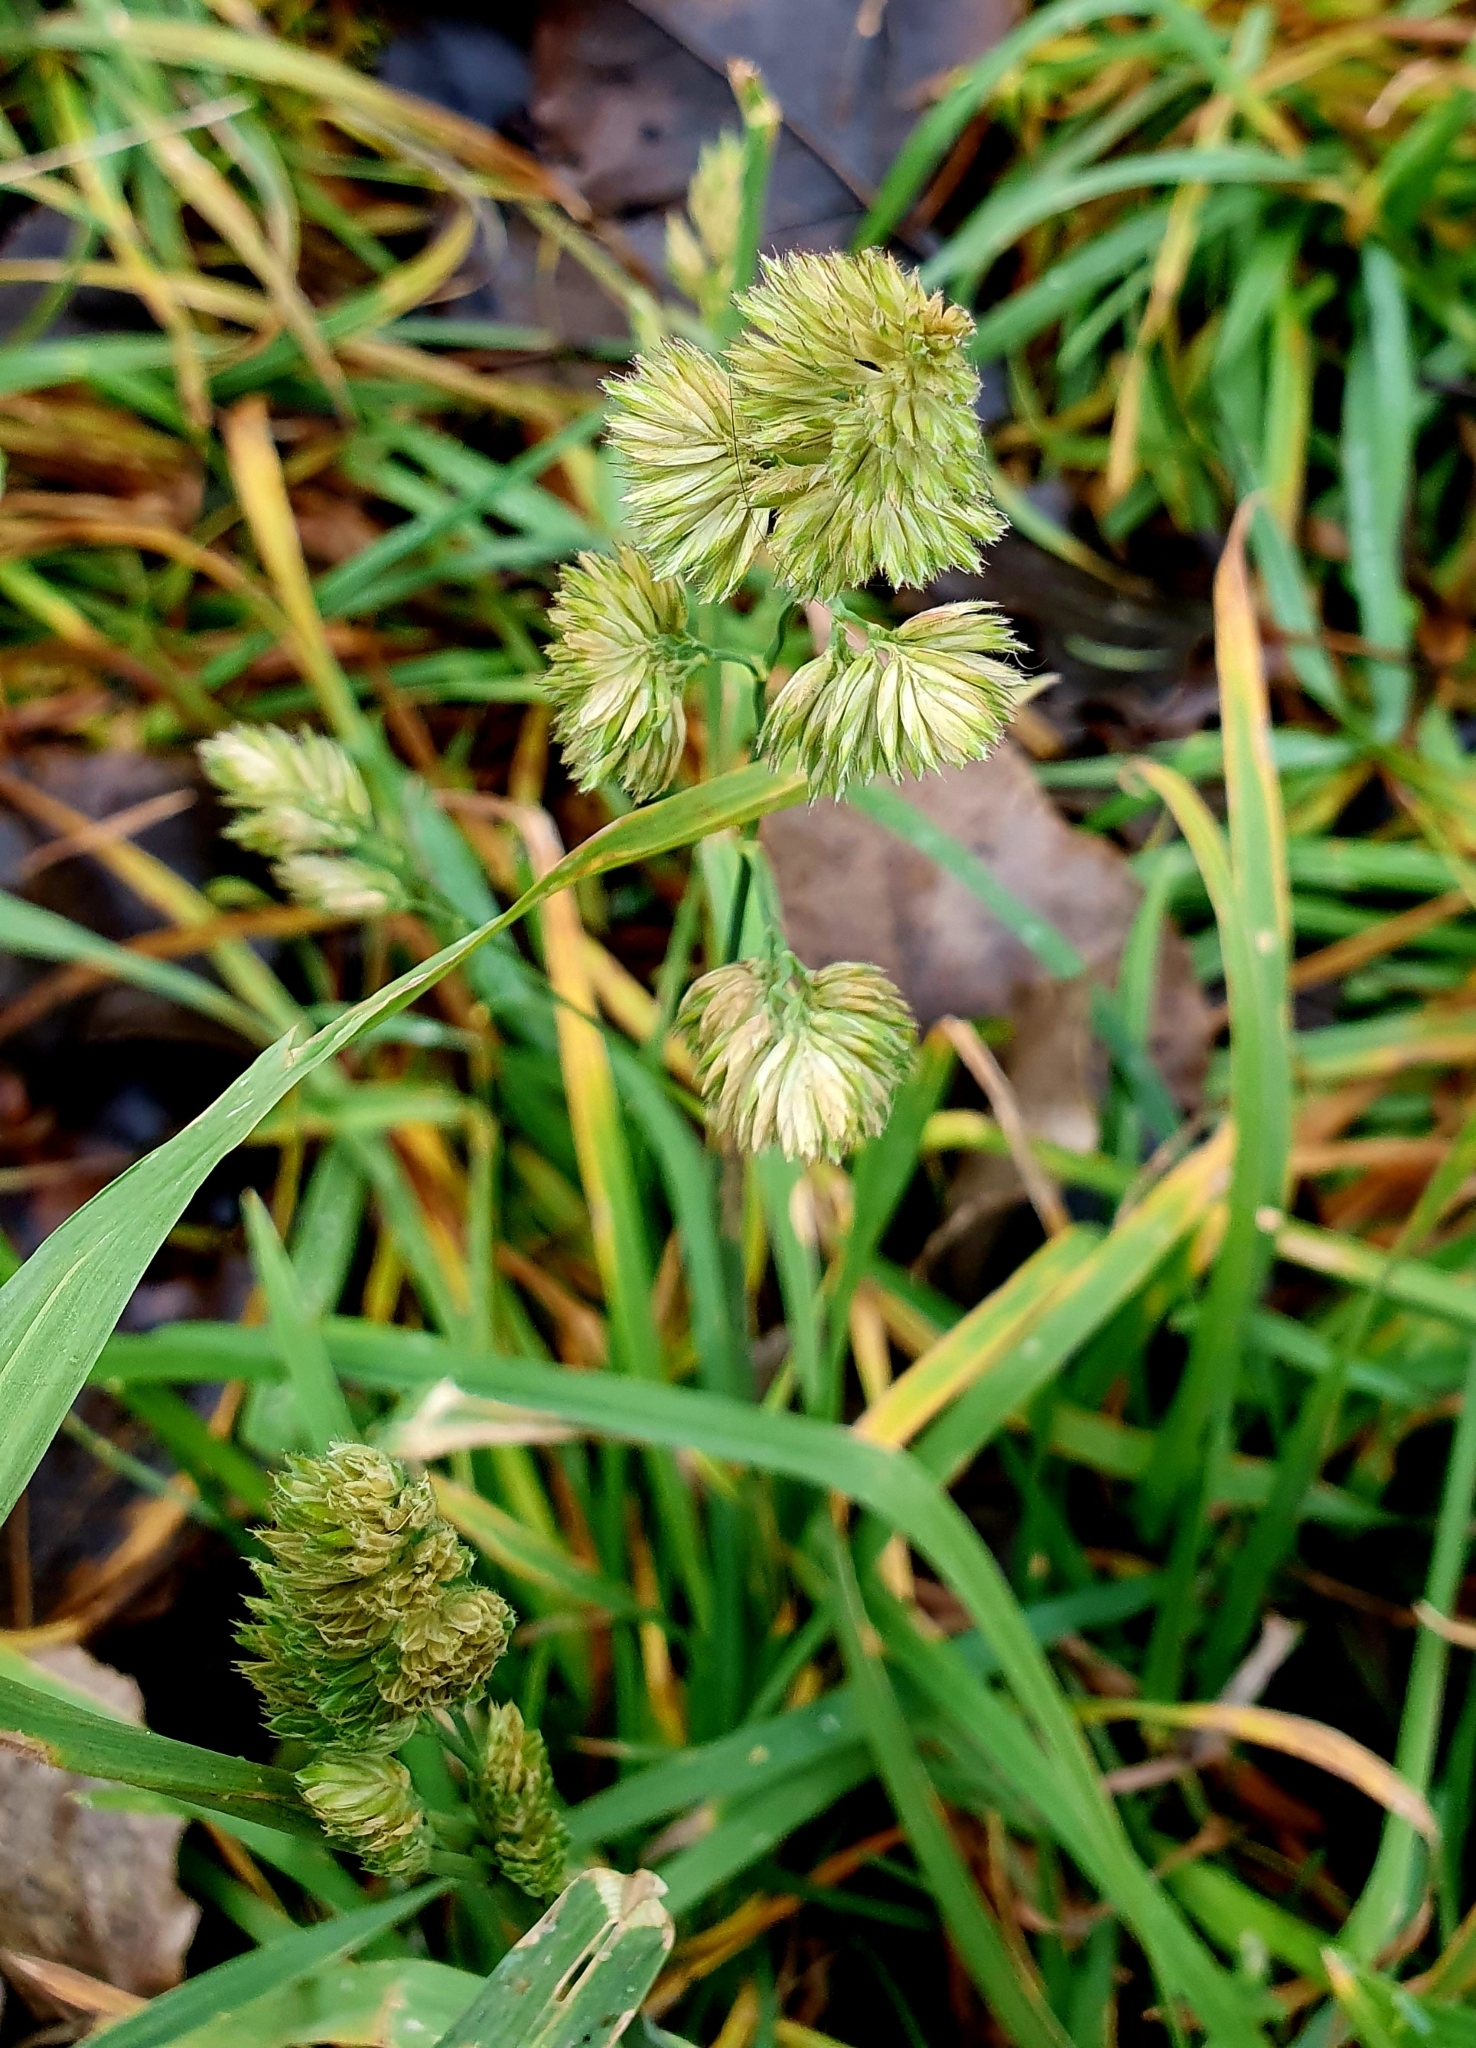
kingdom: Plantae
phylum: Tracheophyta
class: Liliopsida
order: Poales
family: Poaceae
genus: Dactylis
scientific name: Dactylis glomerata
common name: Orchardgrass
